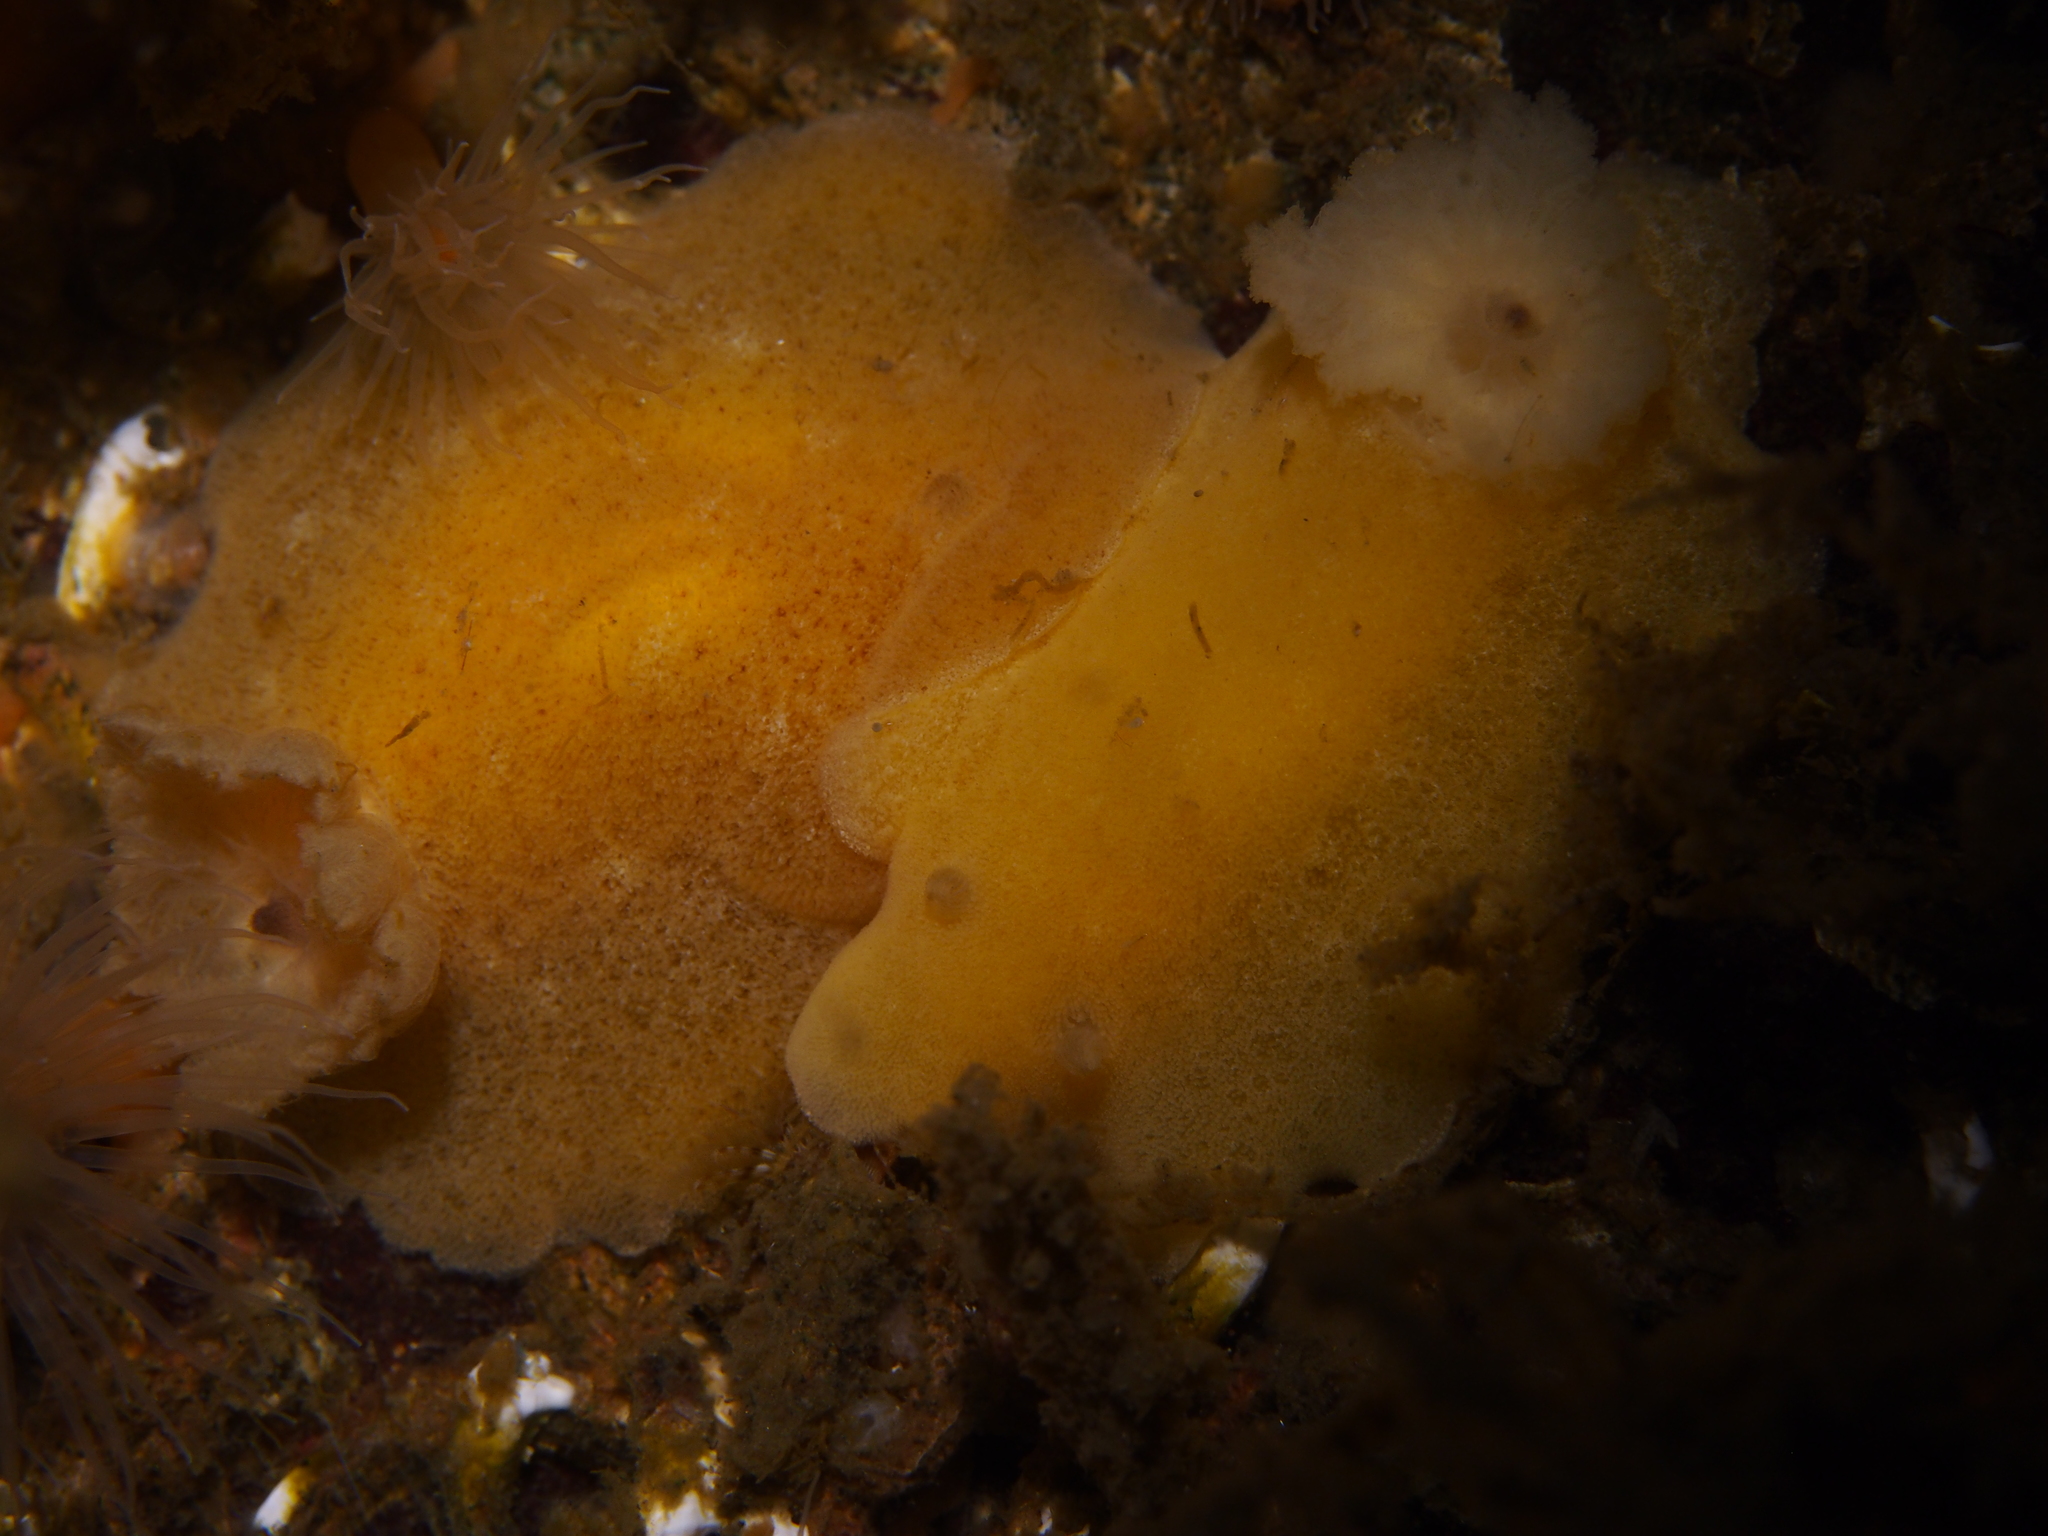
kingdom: Animalia
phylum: Mollusca
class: Gastropoda
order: Nudibranchia
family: Discodorididae
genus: Jorunna
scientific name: Jorunna tomentosa
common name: Grey sea slug
